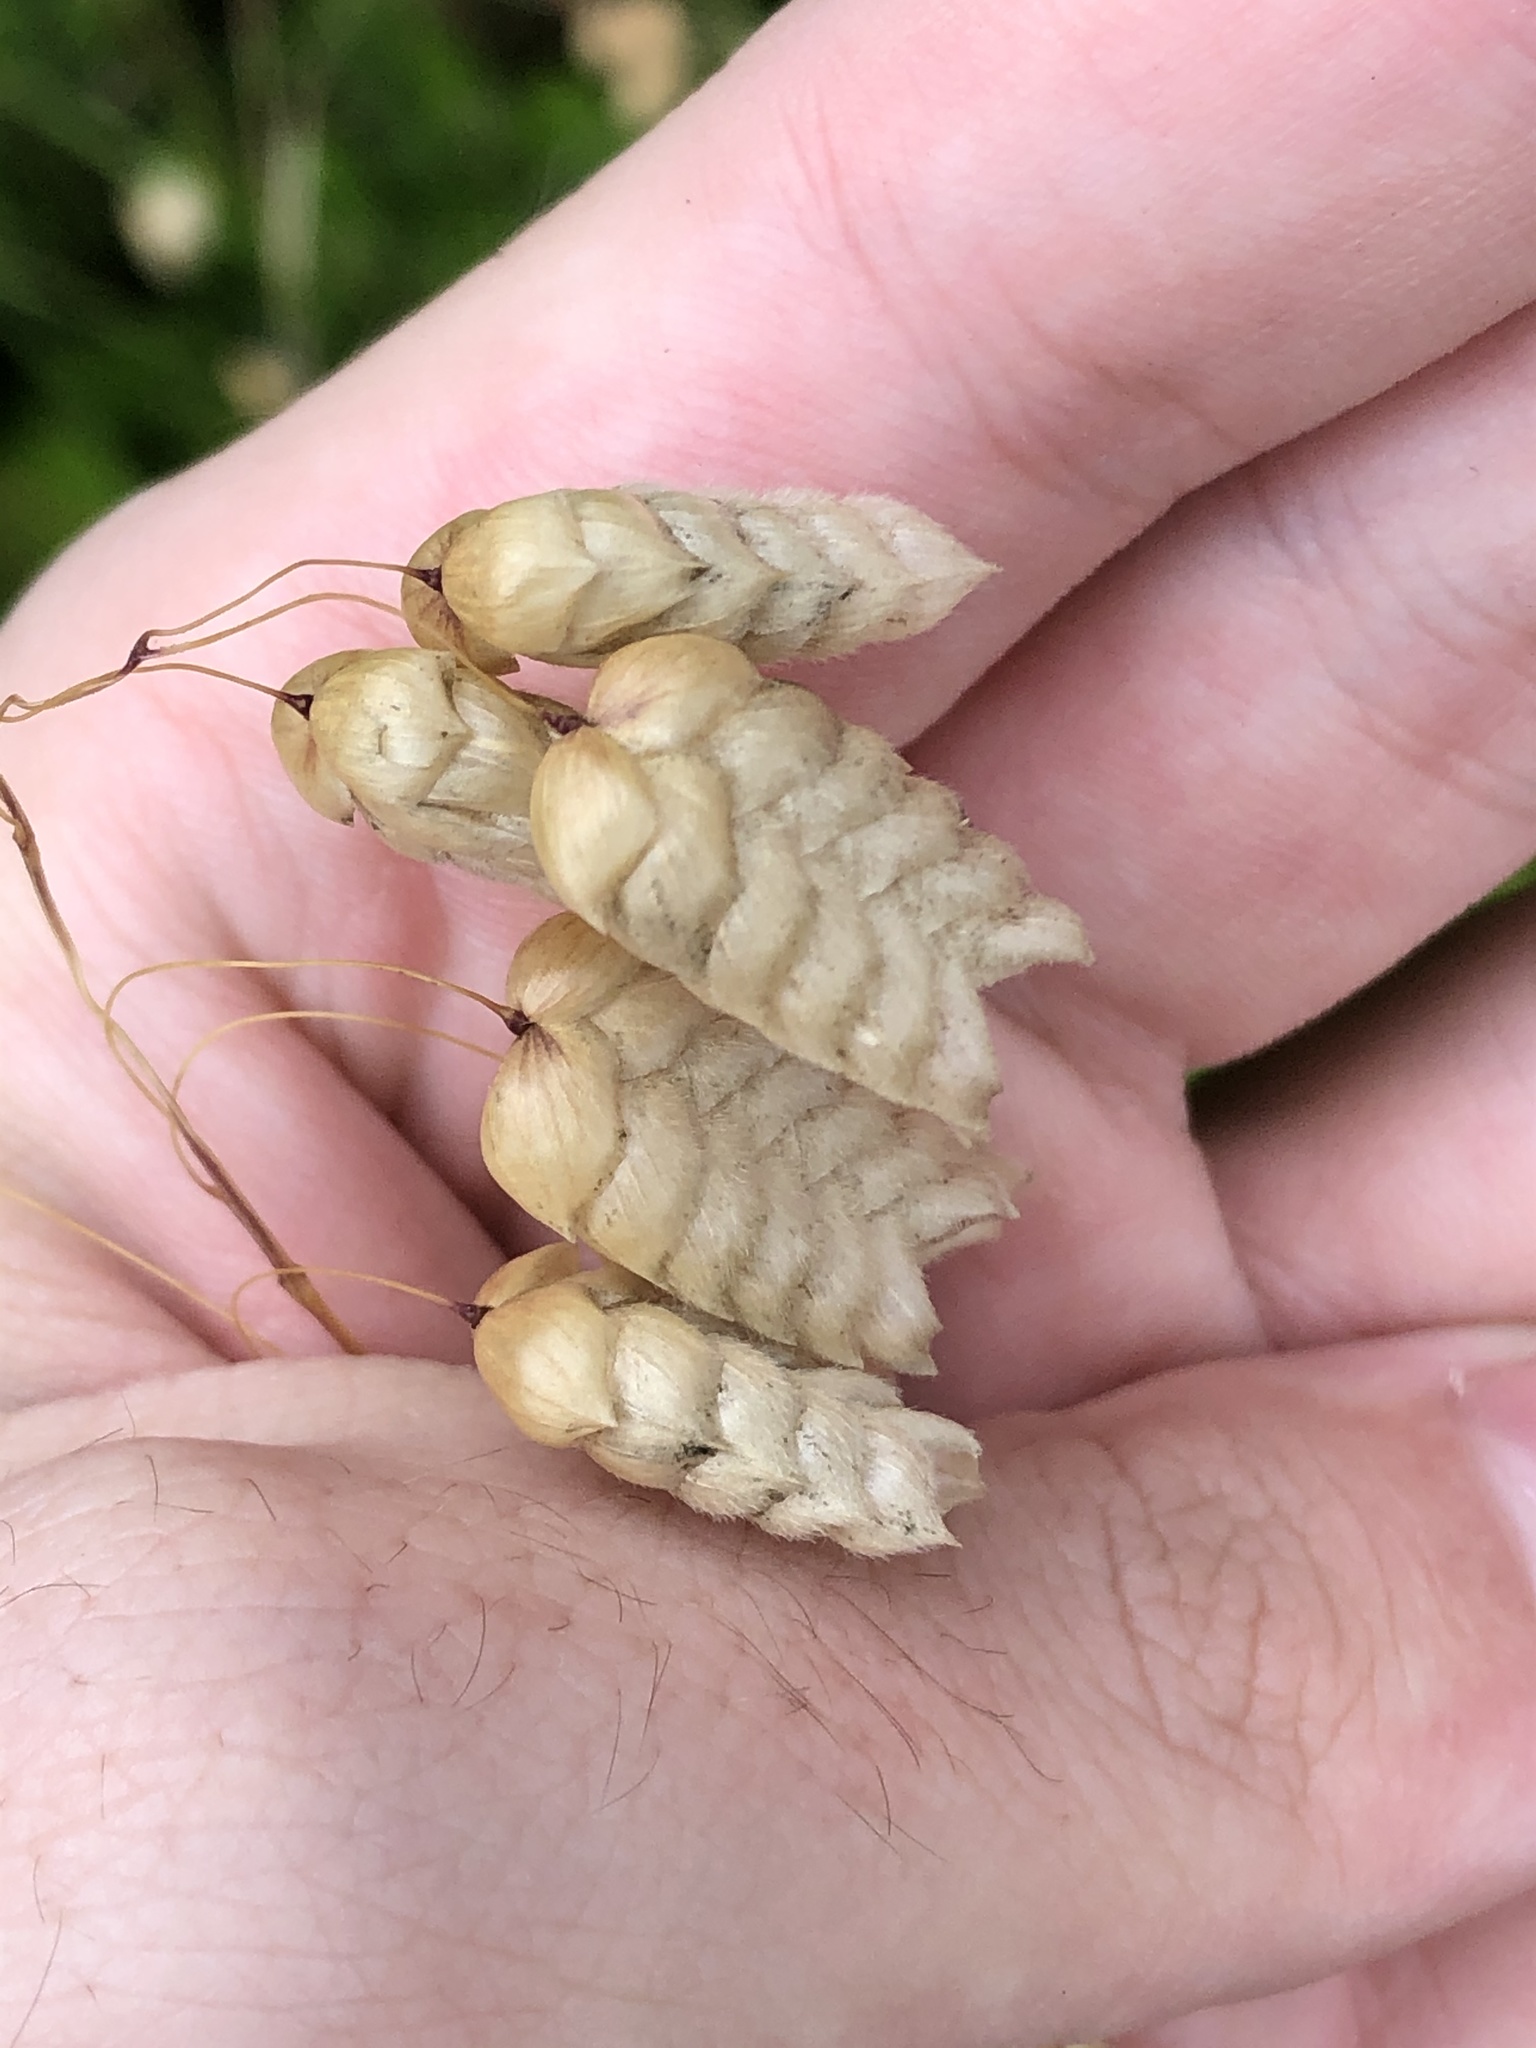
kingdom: Plantae
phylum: Tracheophyta
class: Liliopsida
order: Poales
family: Poaceae
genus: Briza
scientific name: Briza maxima
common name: Big quakinggrass
